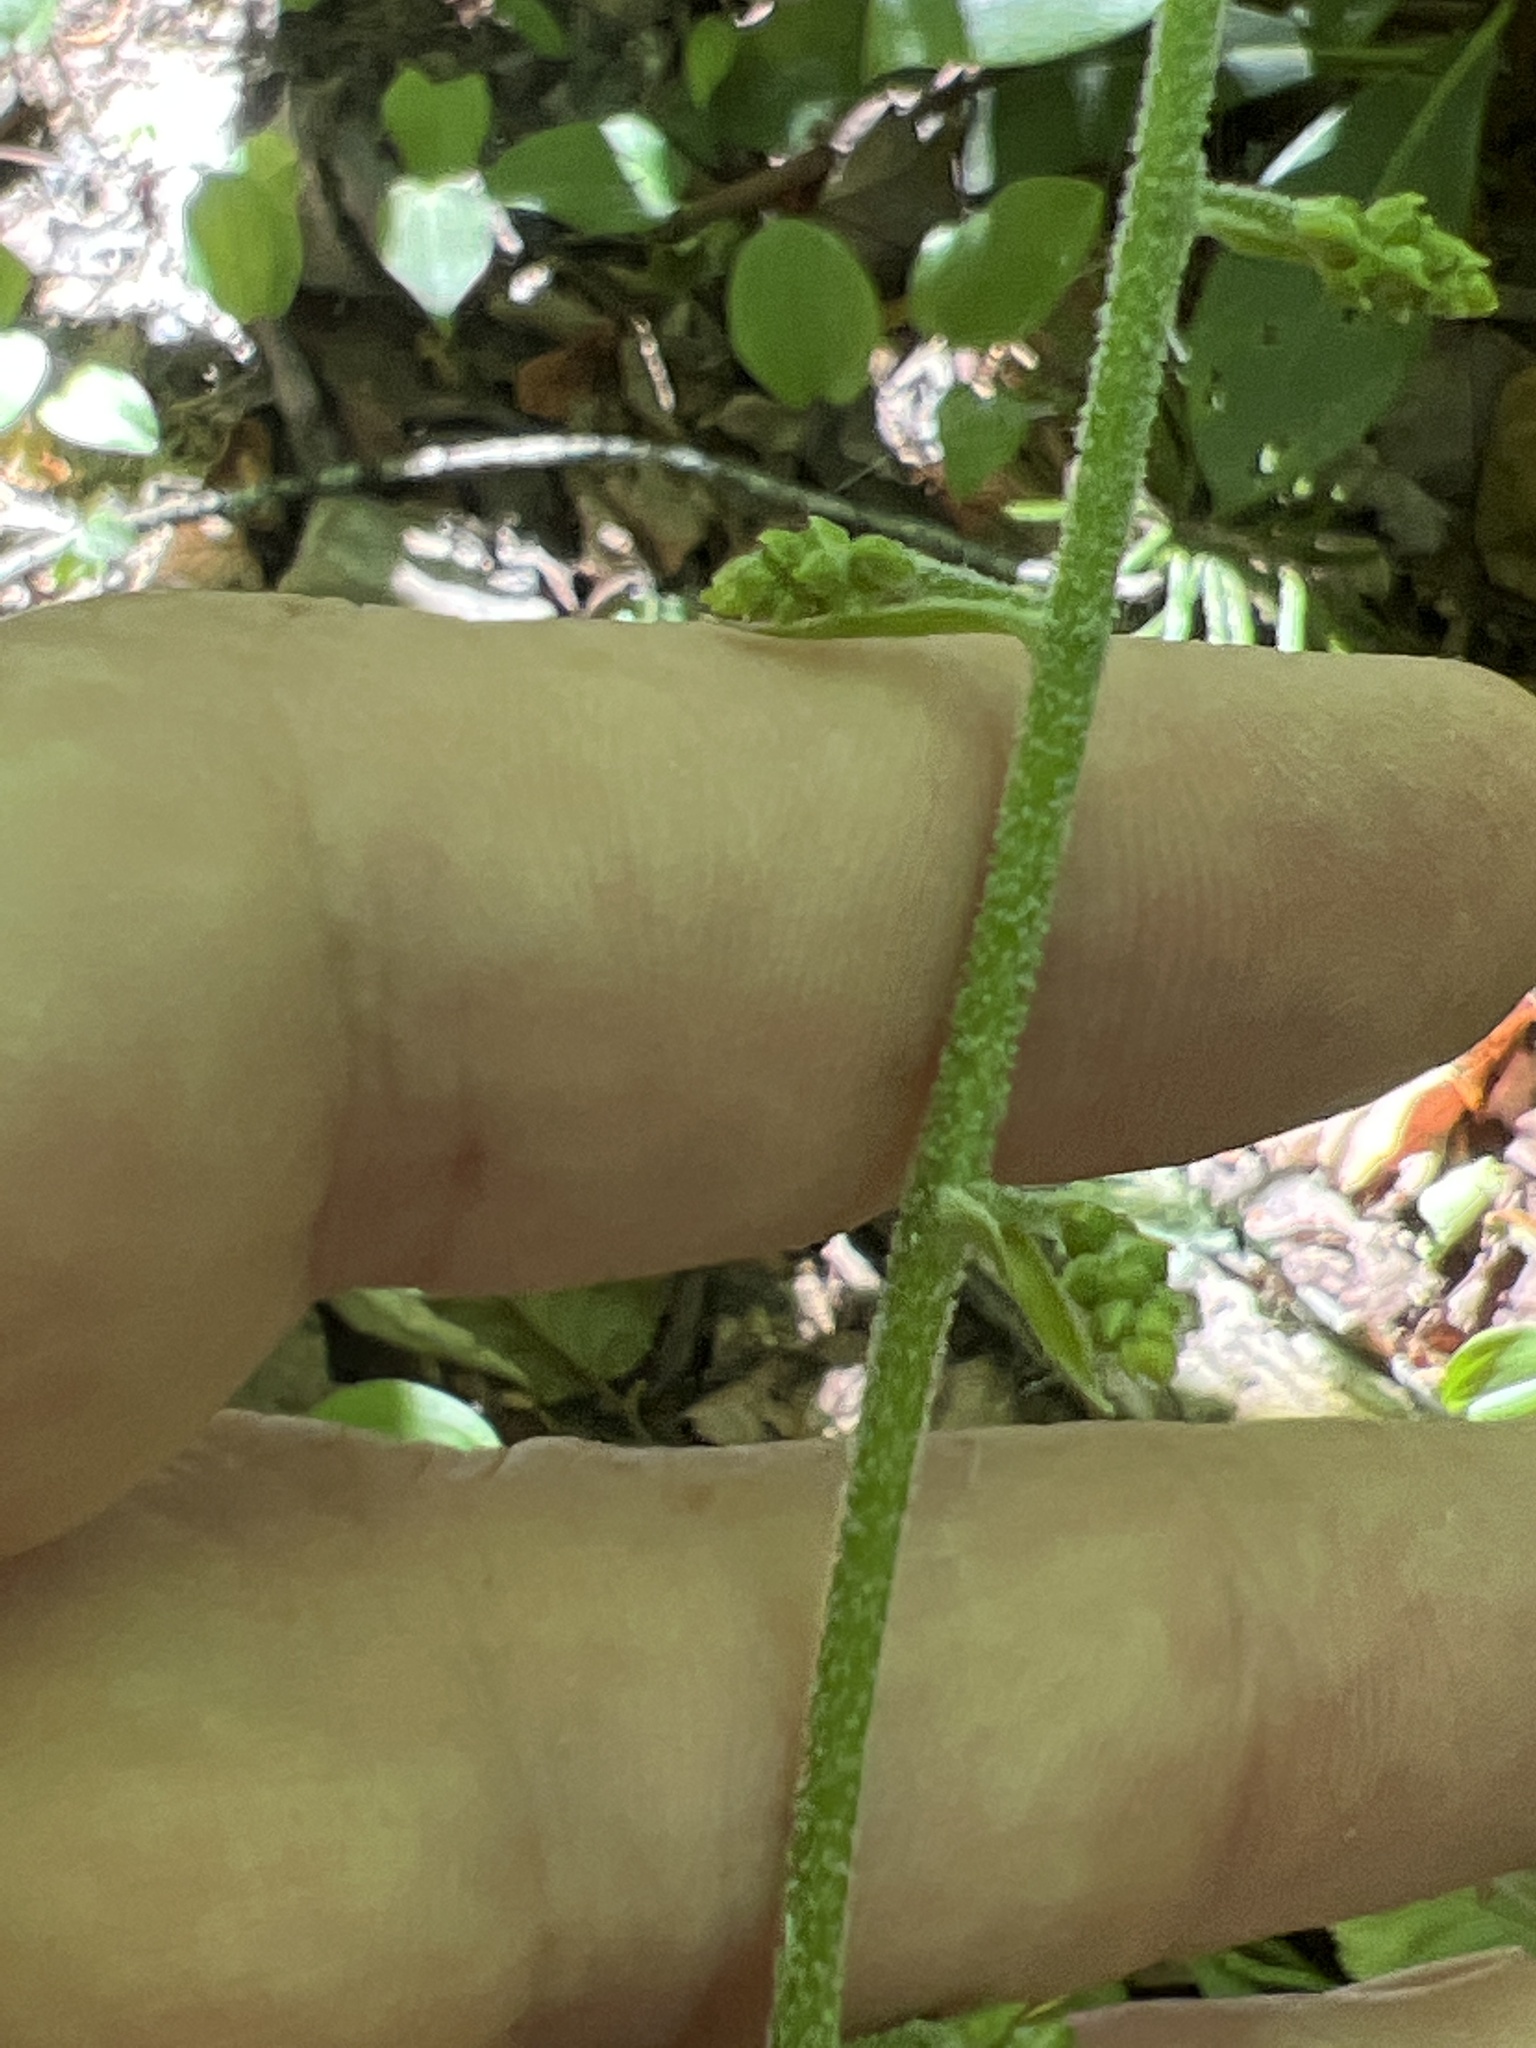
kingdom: Plantae
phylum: Tracheophyta
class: Liliopsida
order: Liliales
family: Melanthiaceae
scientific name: Melanthiaceae
